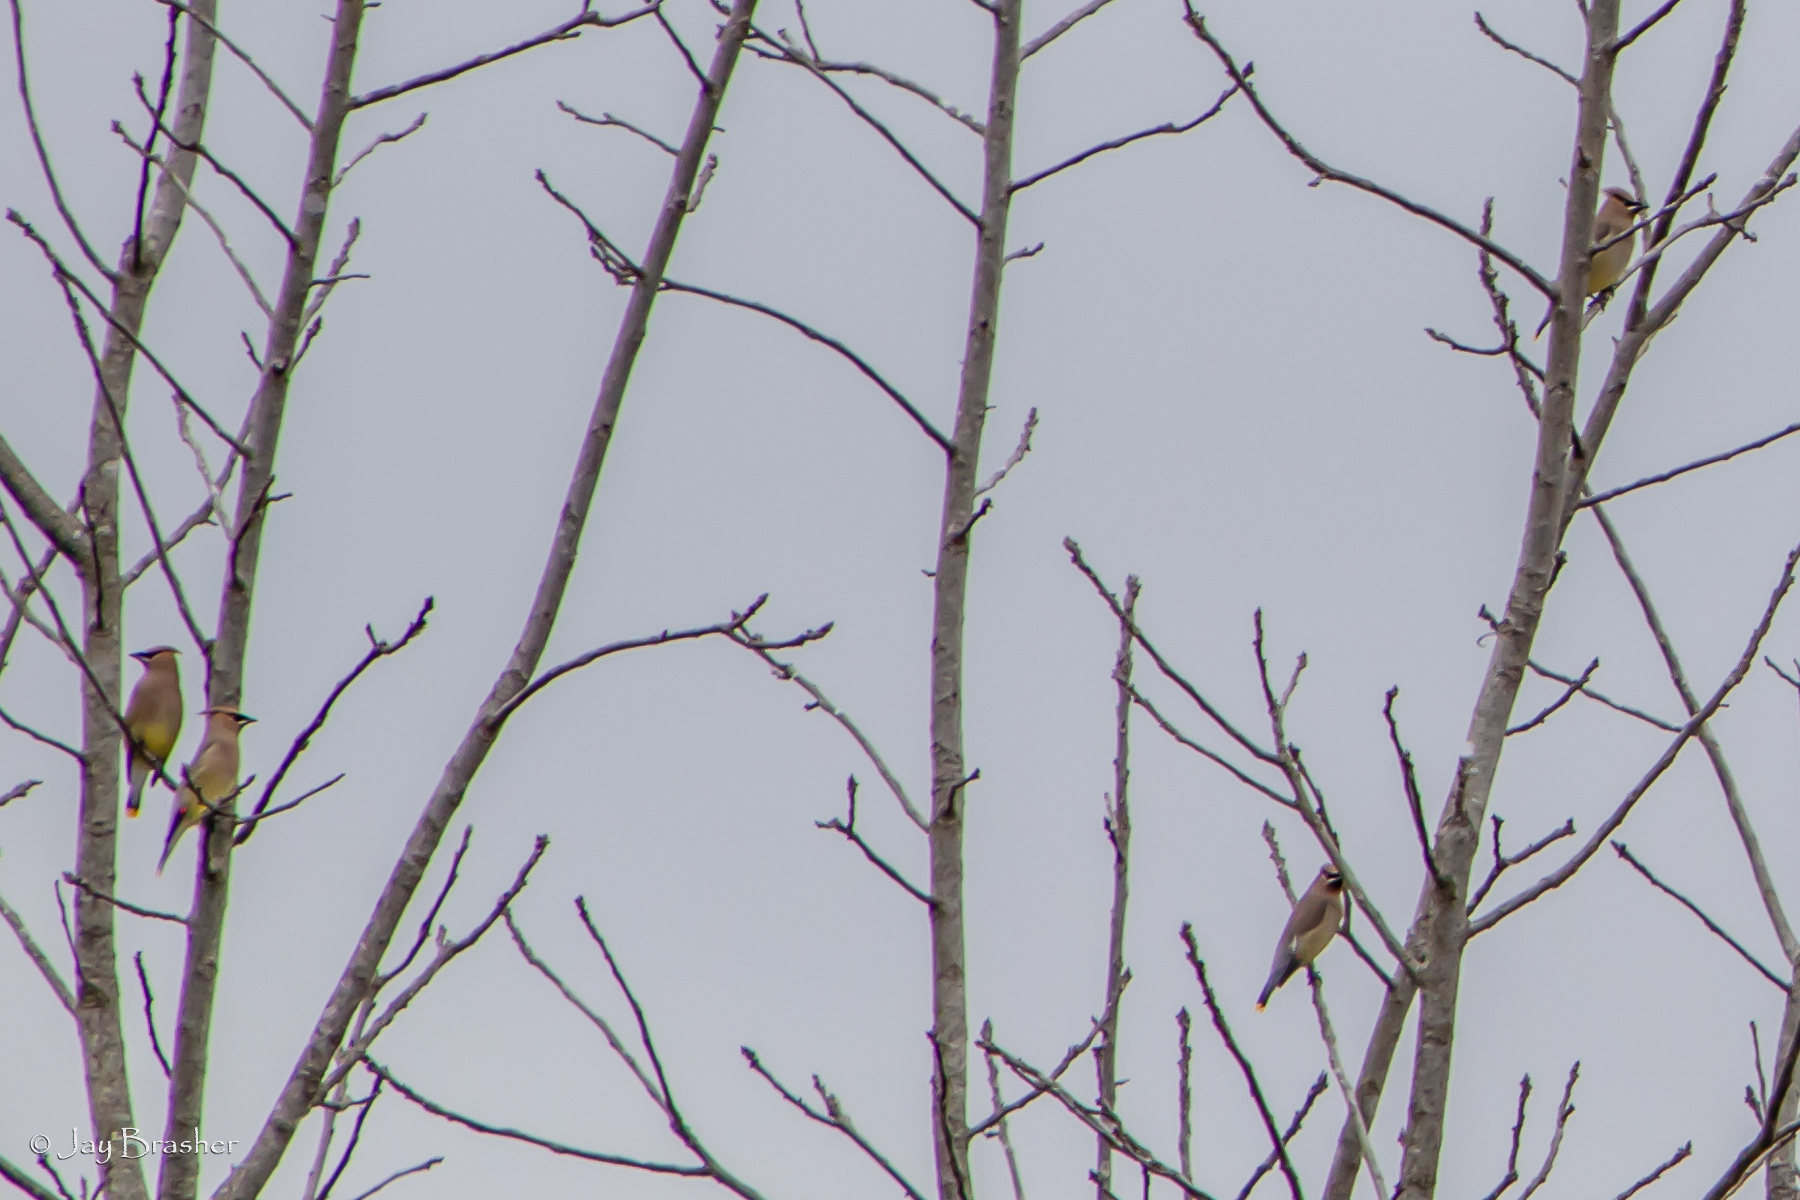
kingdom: Animalia
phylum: Chordata
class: Aves
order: Passeriformes
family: Bombycillidae
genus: Bombycilla
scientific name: Bombycilla cedrorum
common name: Cedar waxwing
